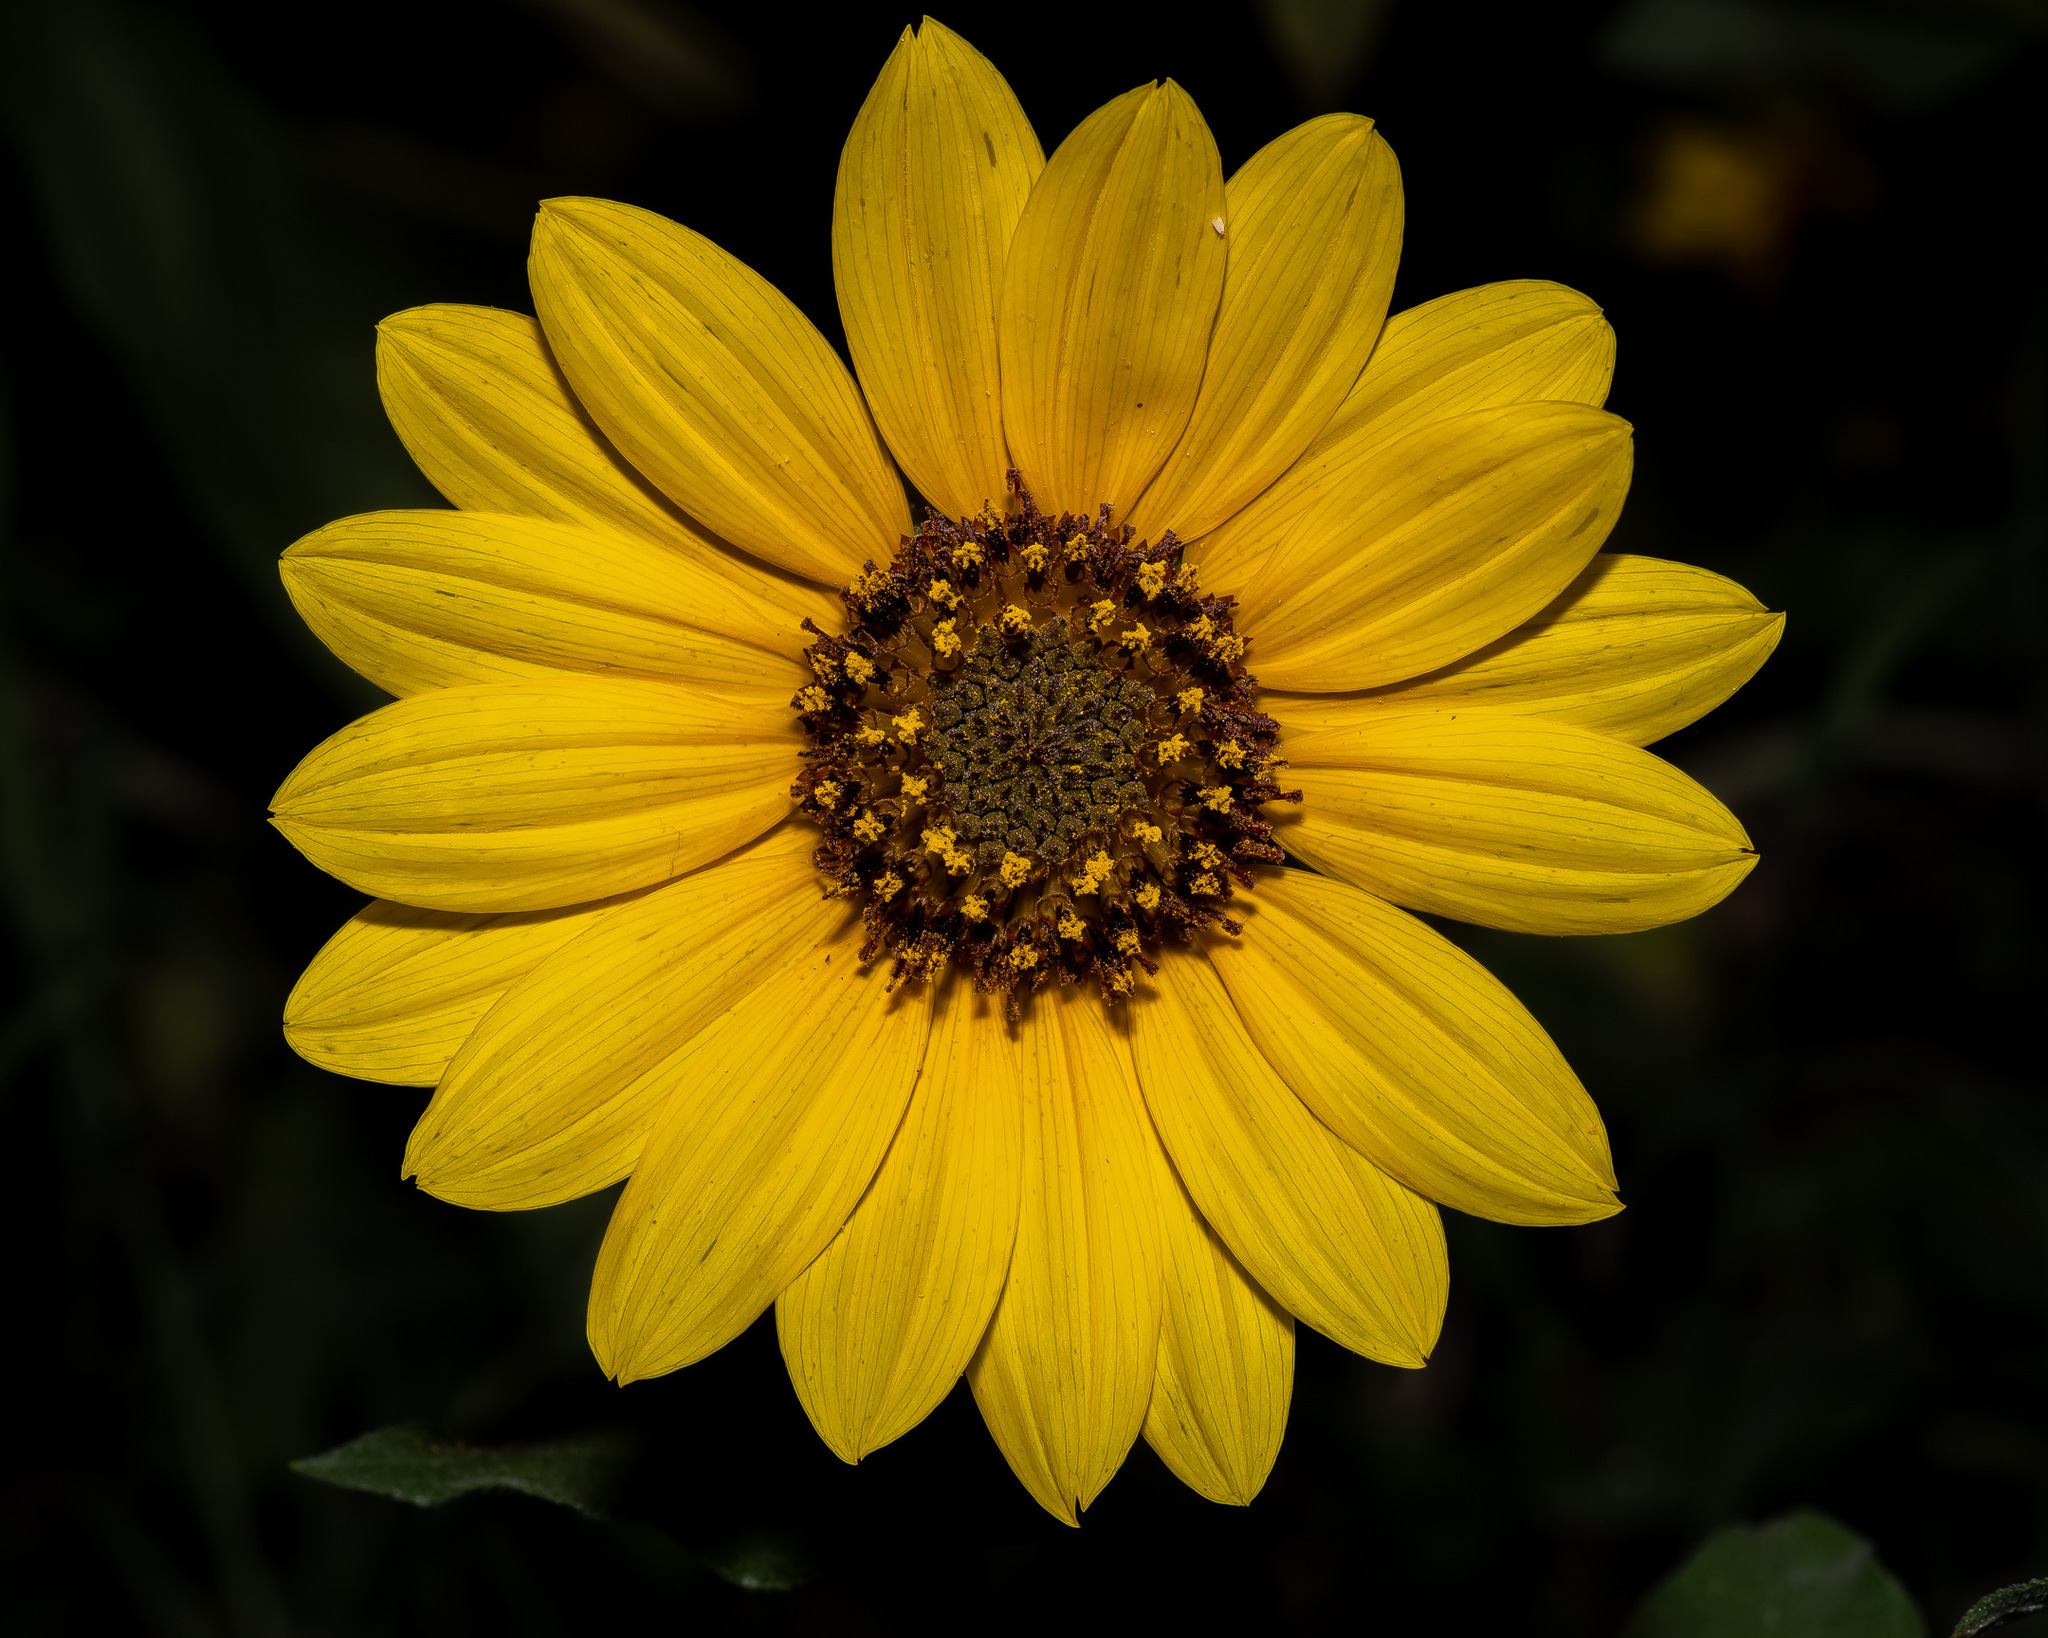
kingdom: Plantae
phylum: Tracheophyta
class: Magnoliopsida
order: Asterales
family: Asteraceae
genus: Helianthus
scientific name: Helianthus annuus
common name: Sunflower
